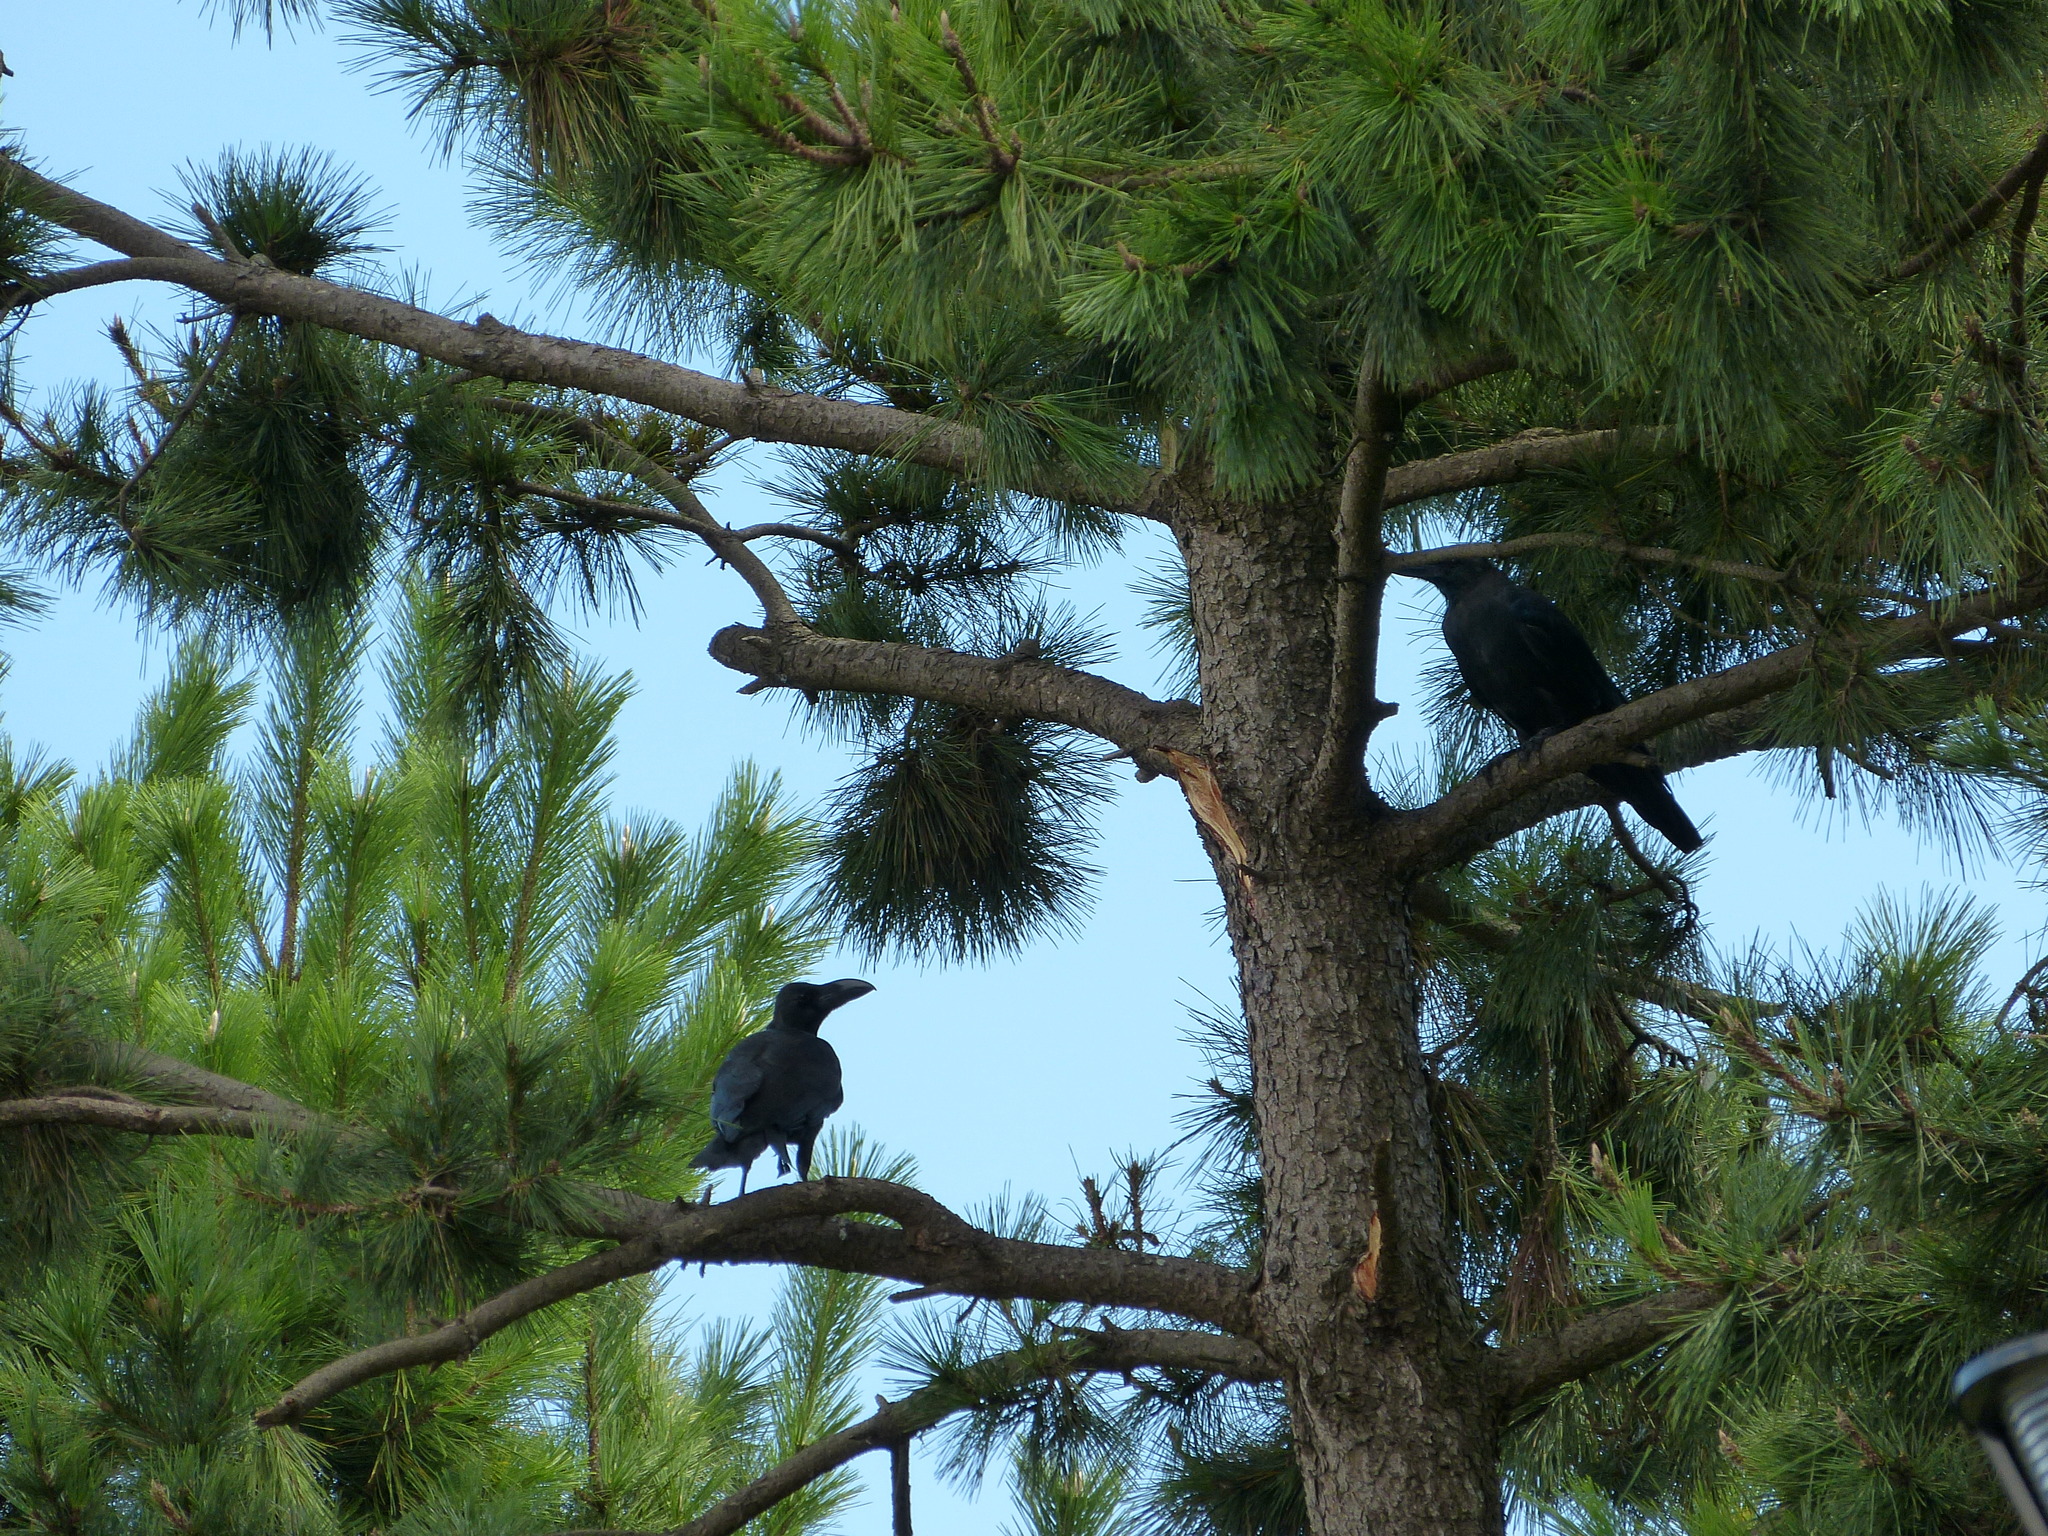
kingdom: Animalia
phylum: Chordata
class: Aves
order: Passeriformes
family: Corvidae
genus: Corvus
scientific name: Corvus macrorhynchos
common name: Large-billed crow
